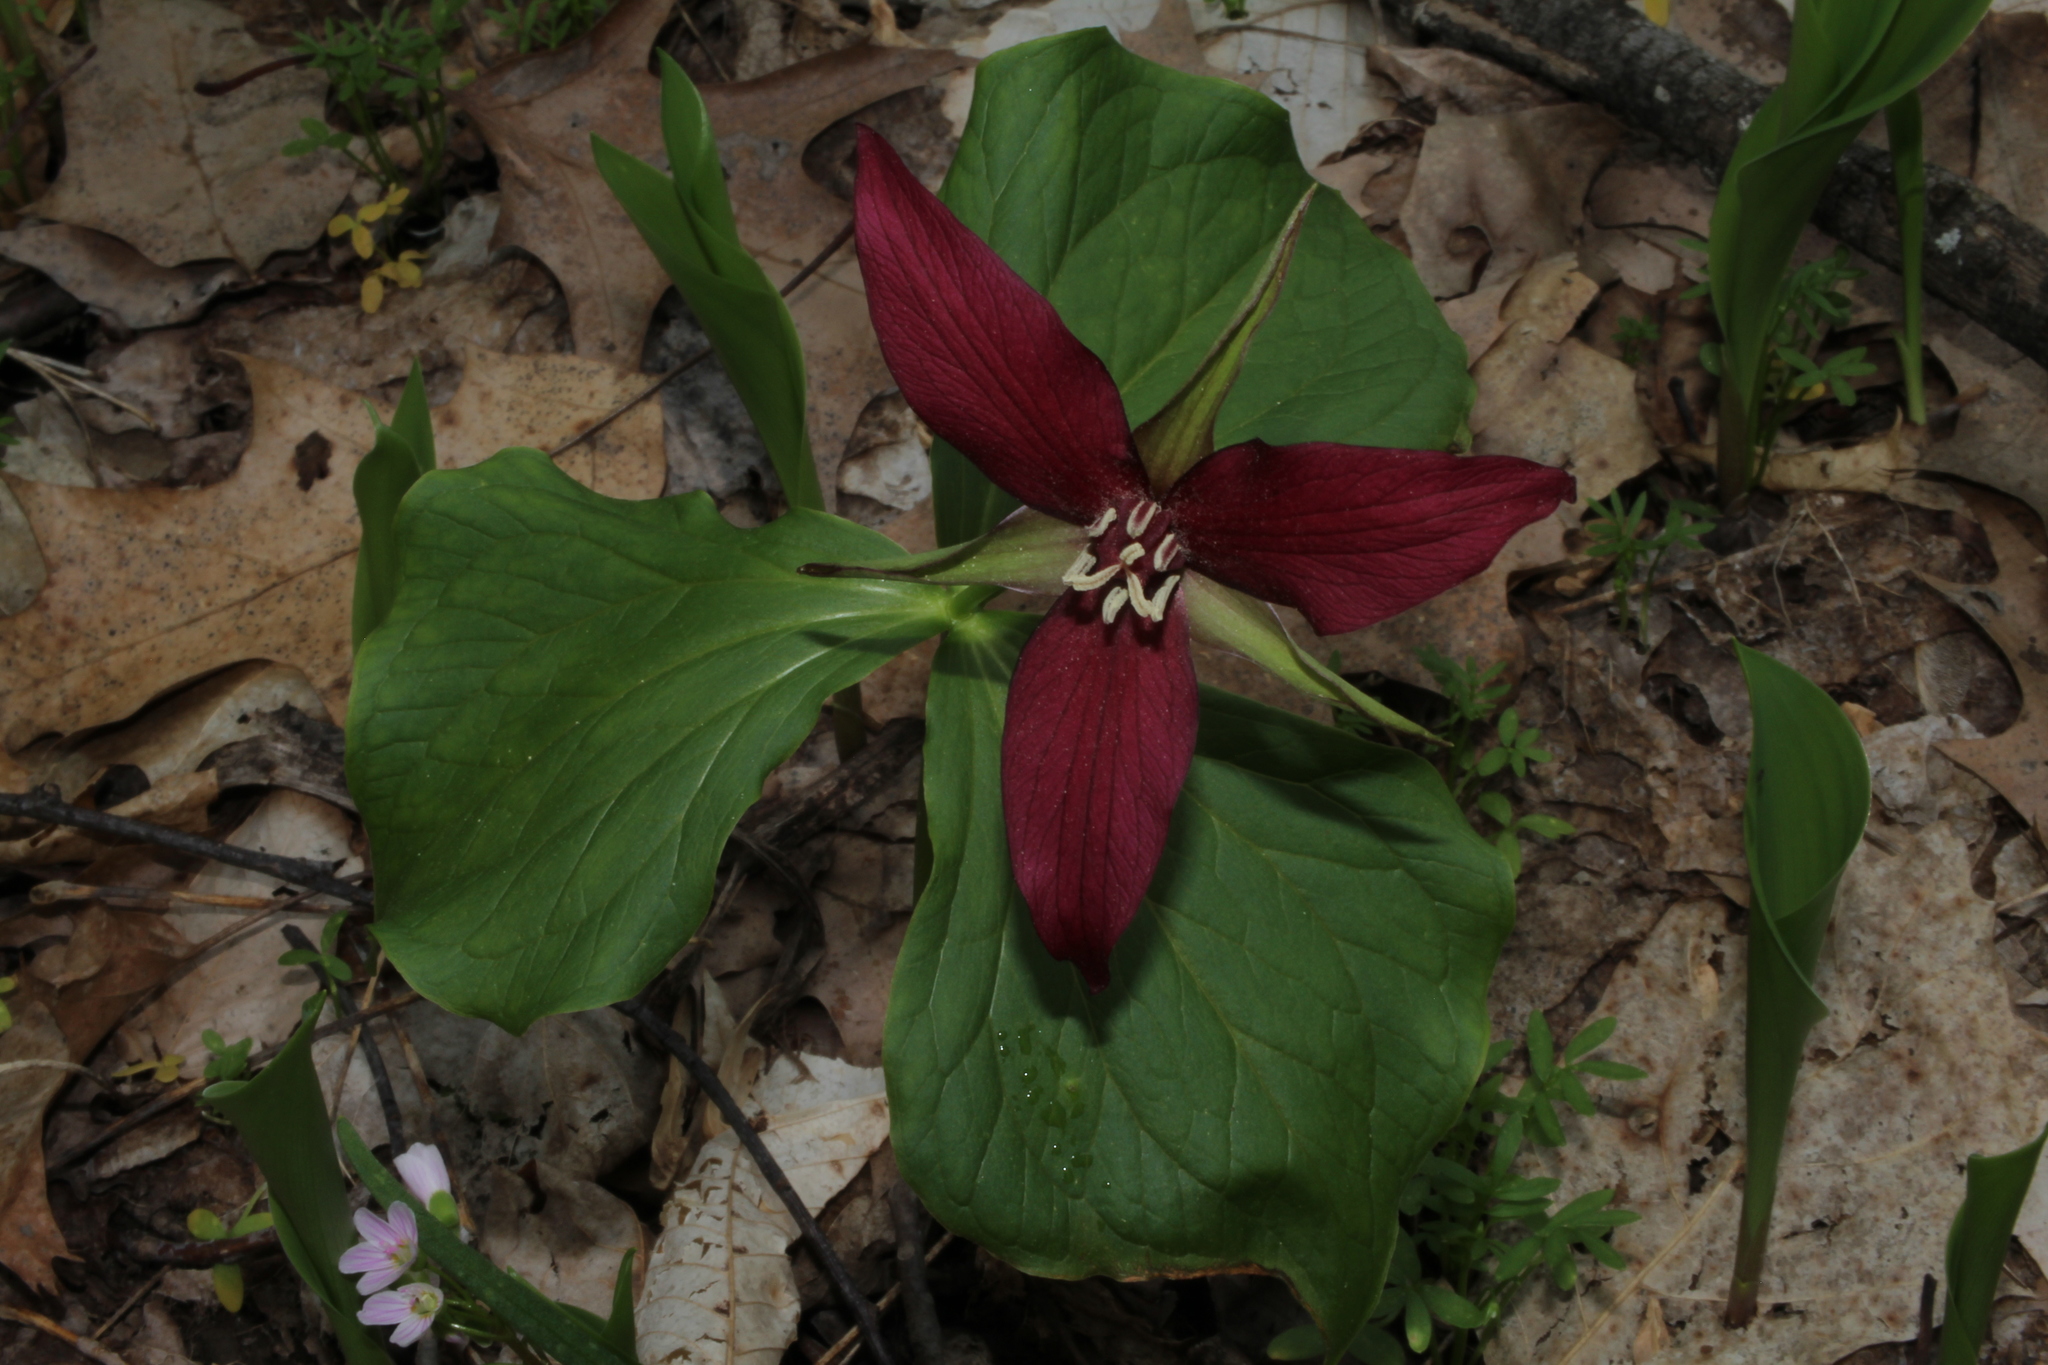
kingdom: Plantae
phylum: Tracheophyta
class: Liliopsida
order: Liliales
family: Melanthiaceae
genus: Trillium
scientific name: Trillium erectum
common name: Purple trillium
